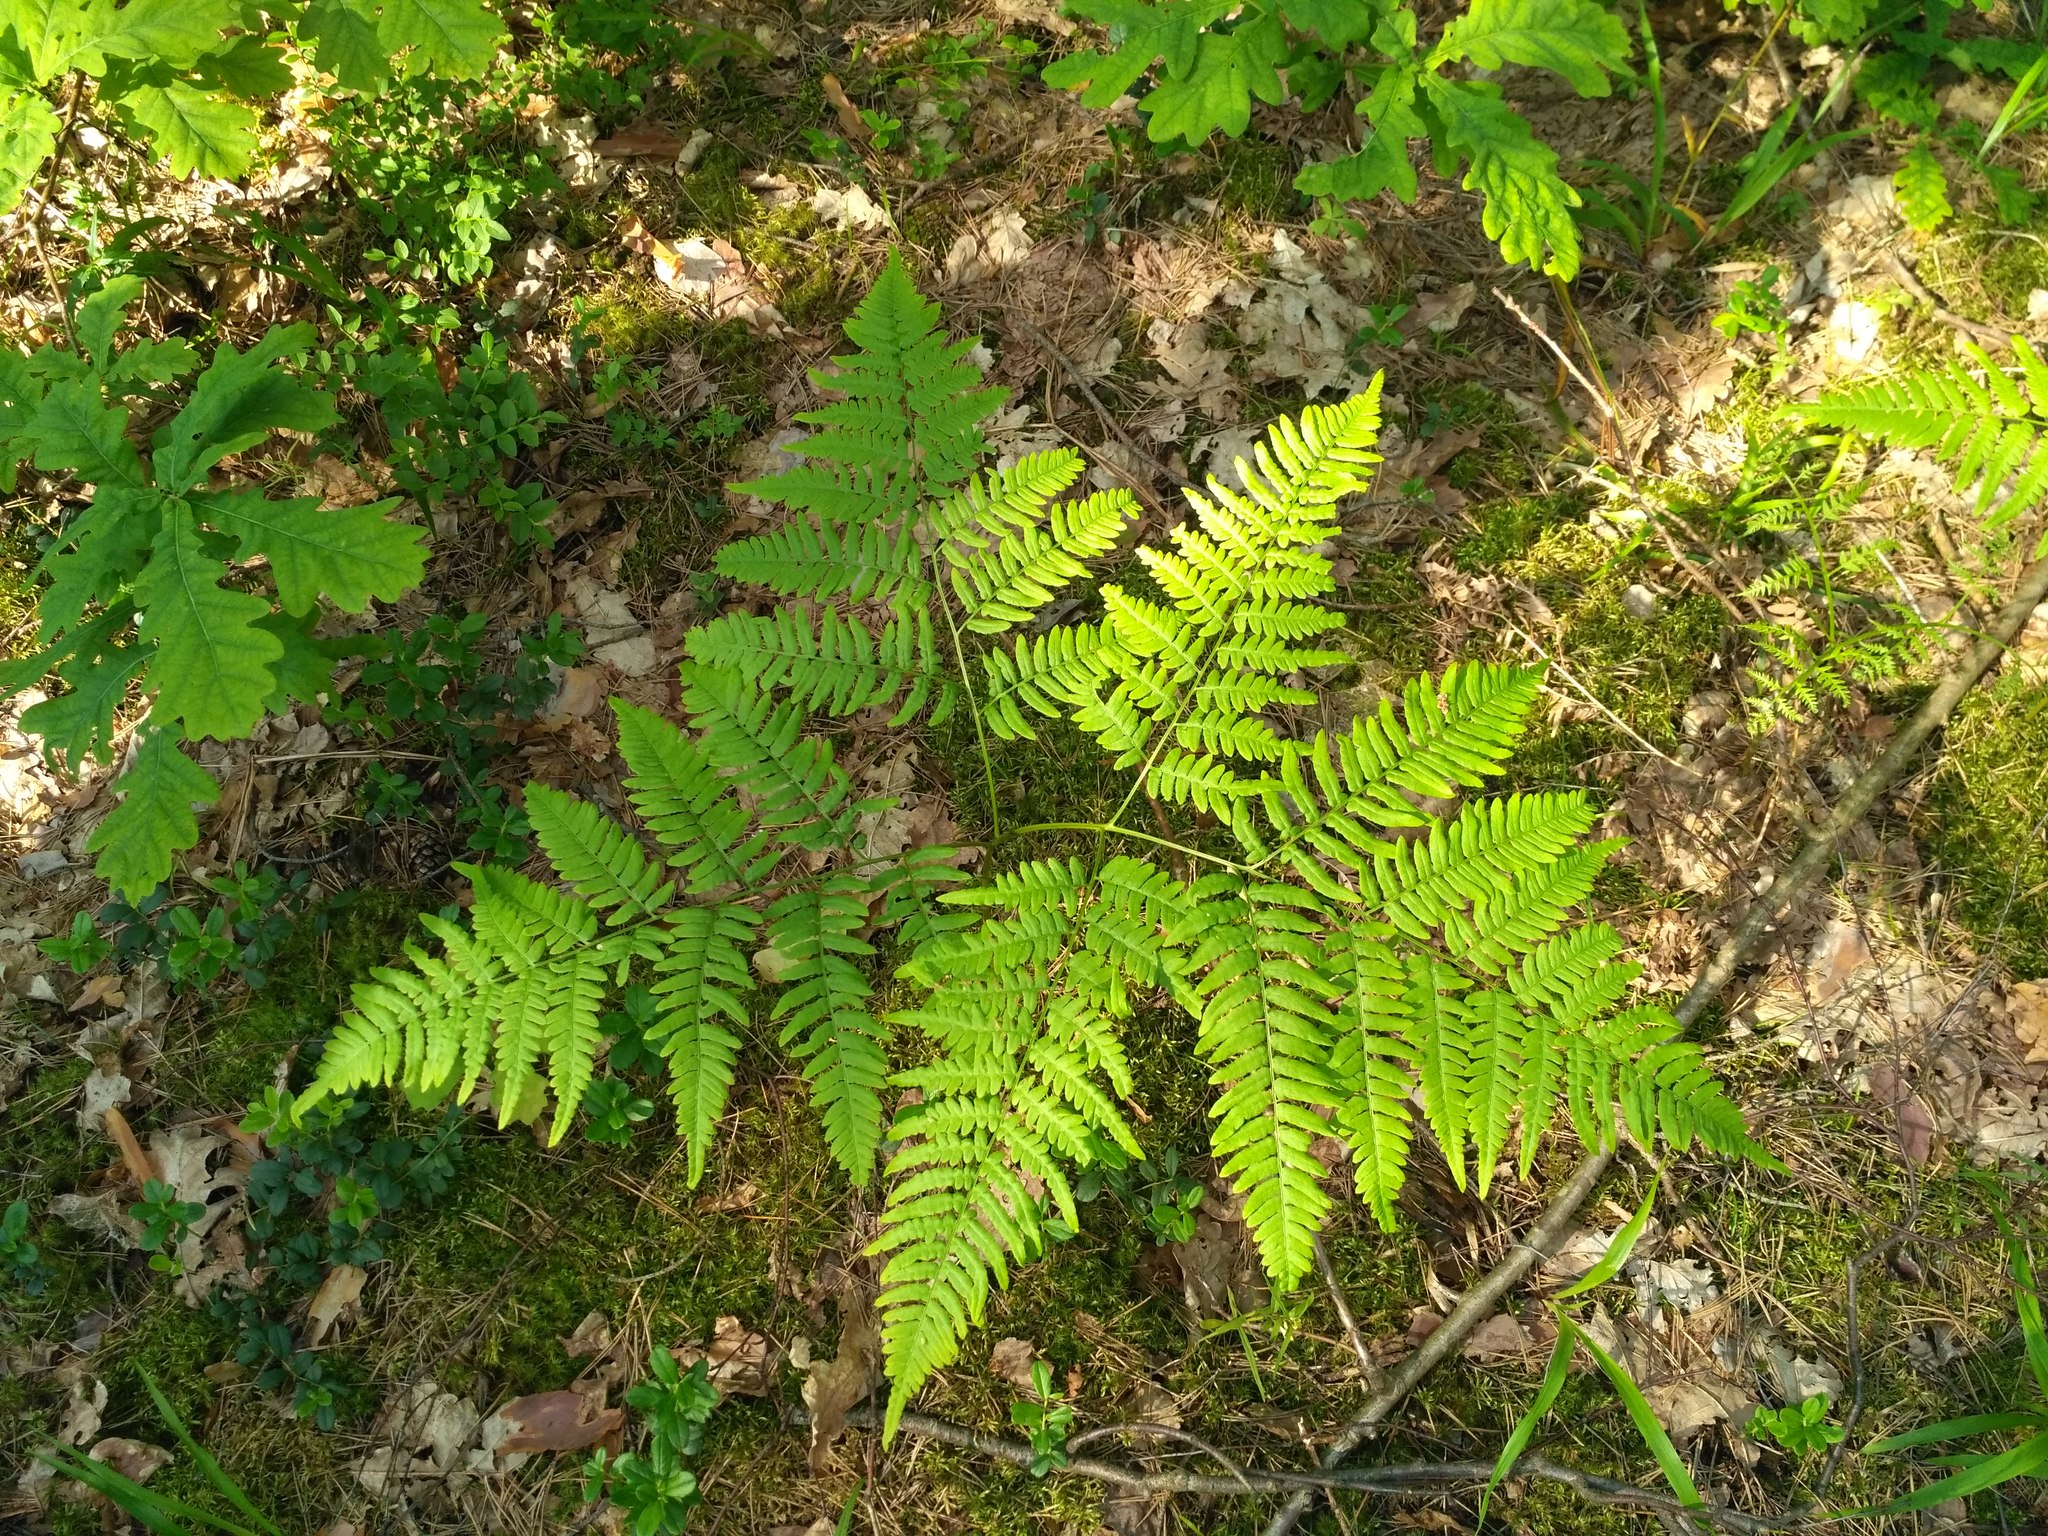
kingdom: Plantae
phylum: Tracheophyta
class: Polypodiopsida
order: Polypodiales
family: Dennstaedtiaceae
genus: Pteridium
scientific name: Pteridium aquilinum
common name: Bracken
